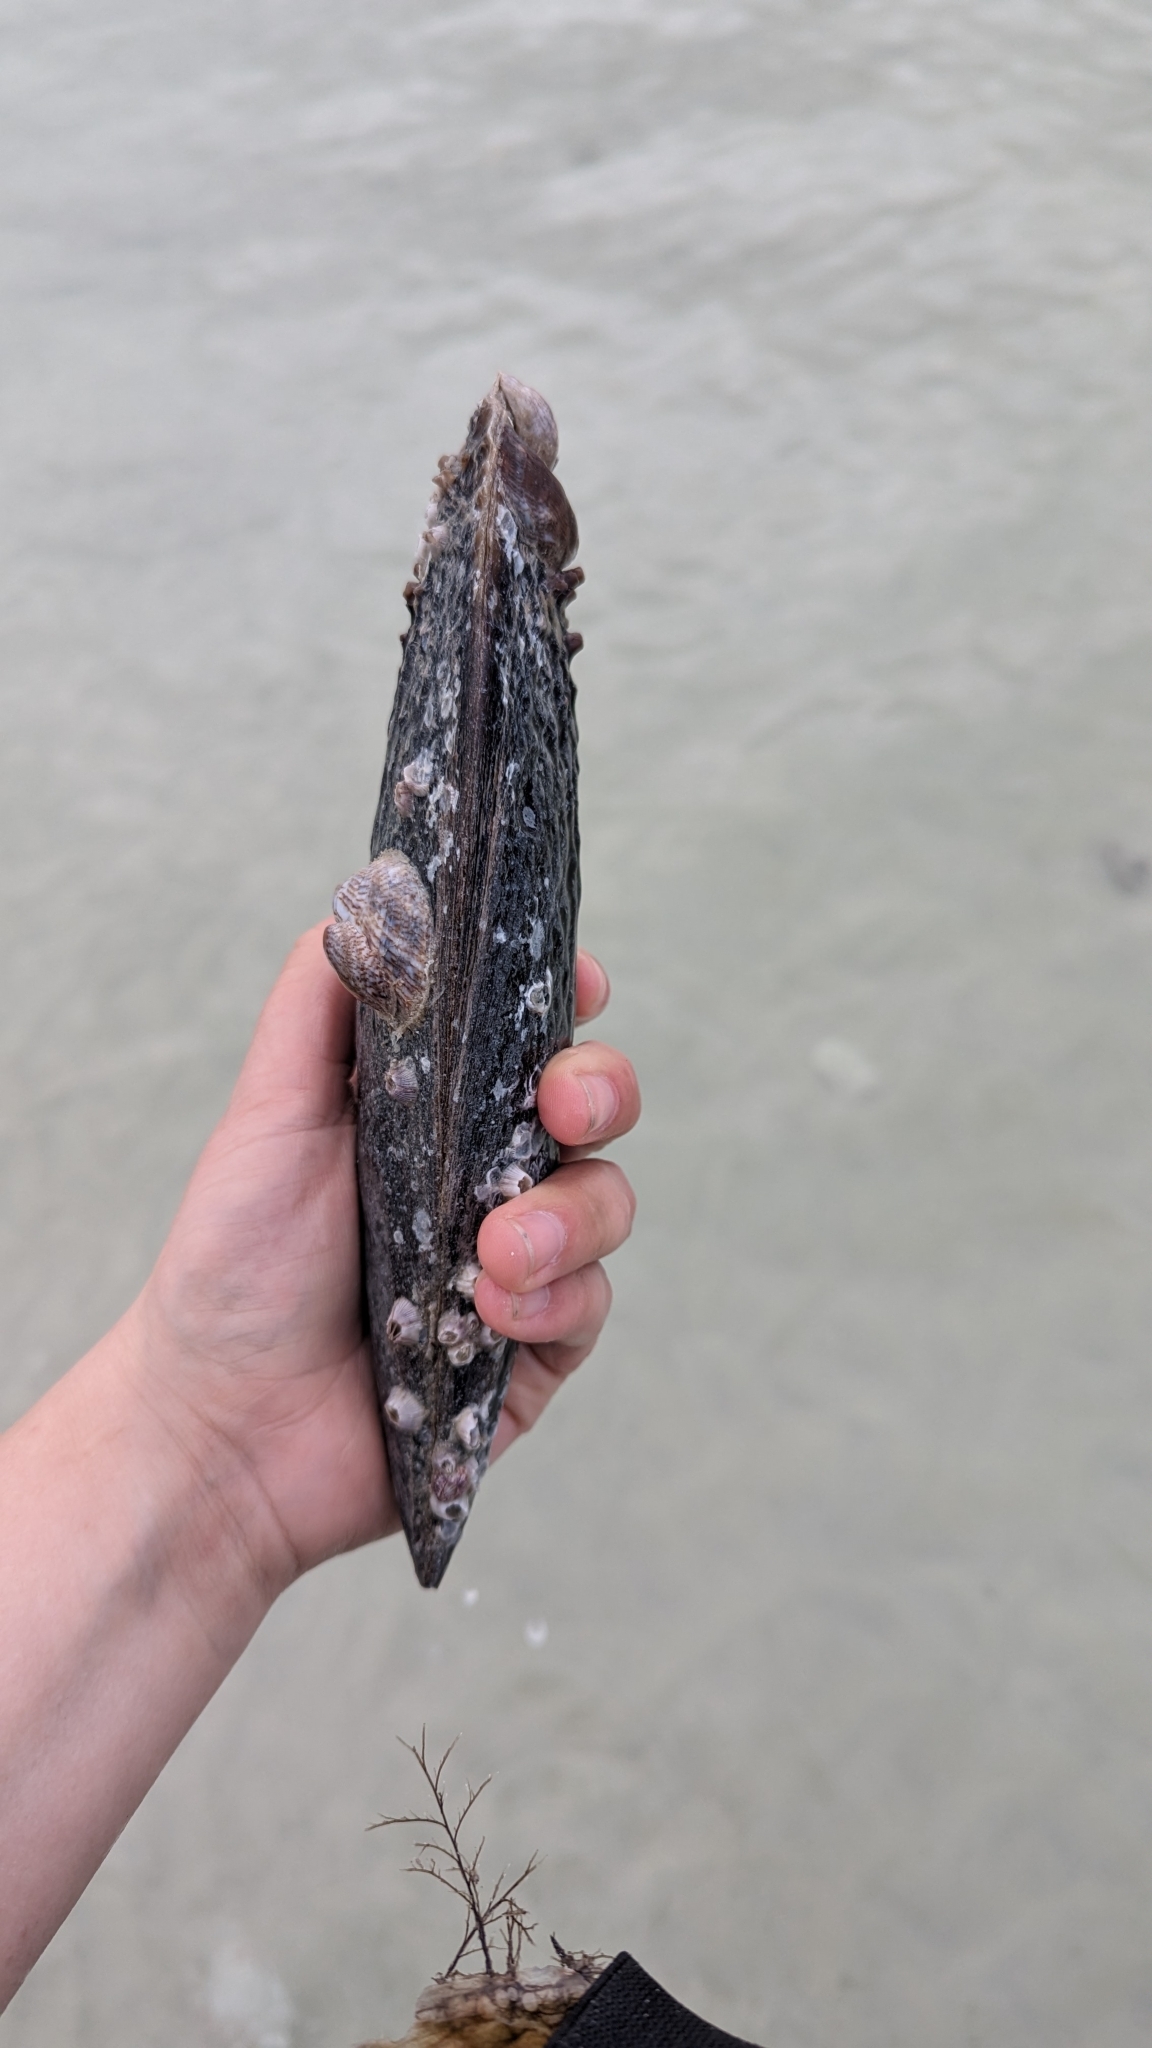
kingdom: Animalia
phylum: Mollusca
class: Bivalvia
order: Ostreida
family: Pinnidae
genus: Atrina
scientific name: Atrina rigida
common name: Stiff penshell
